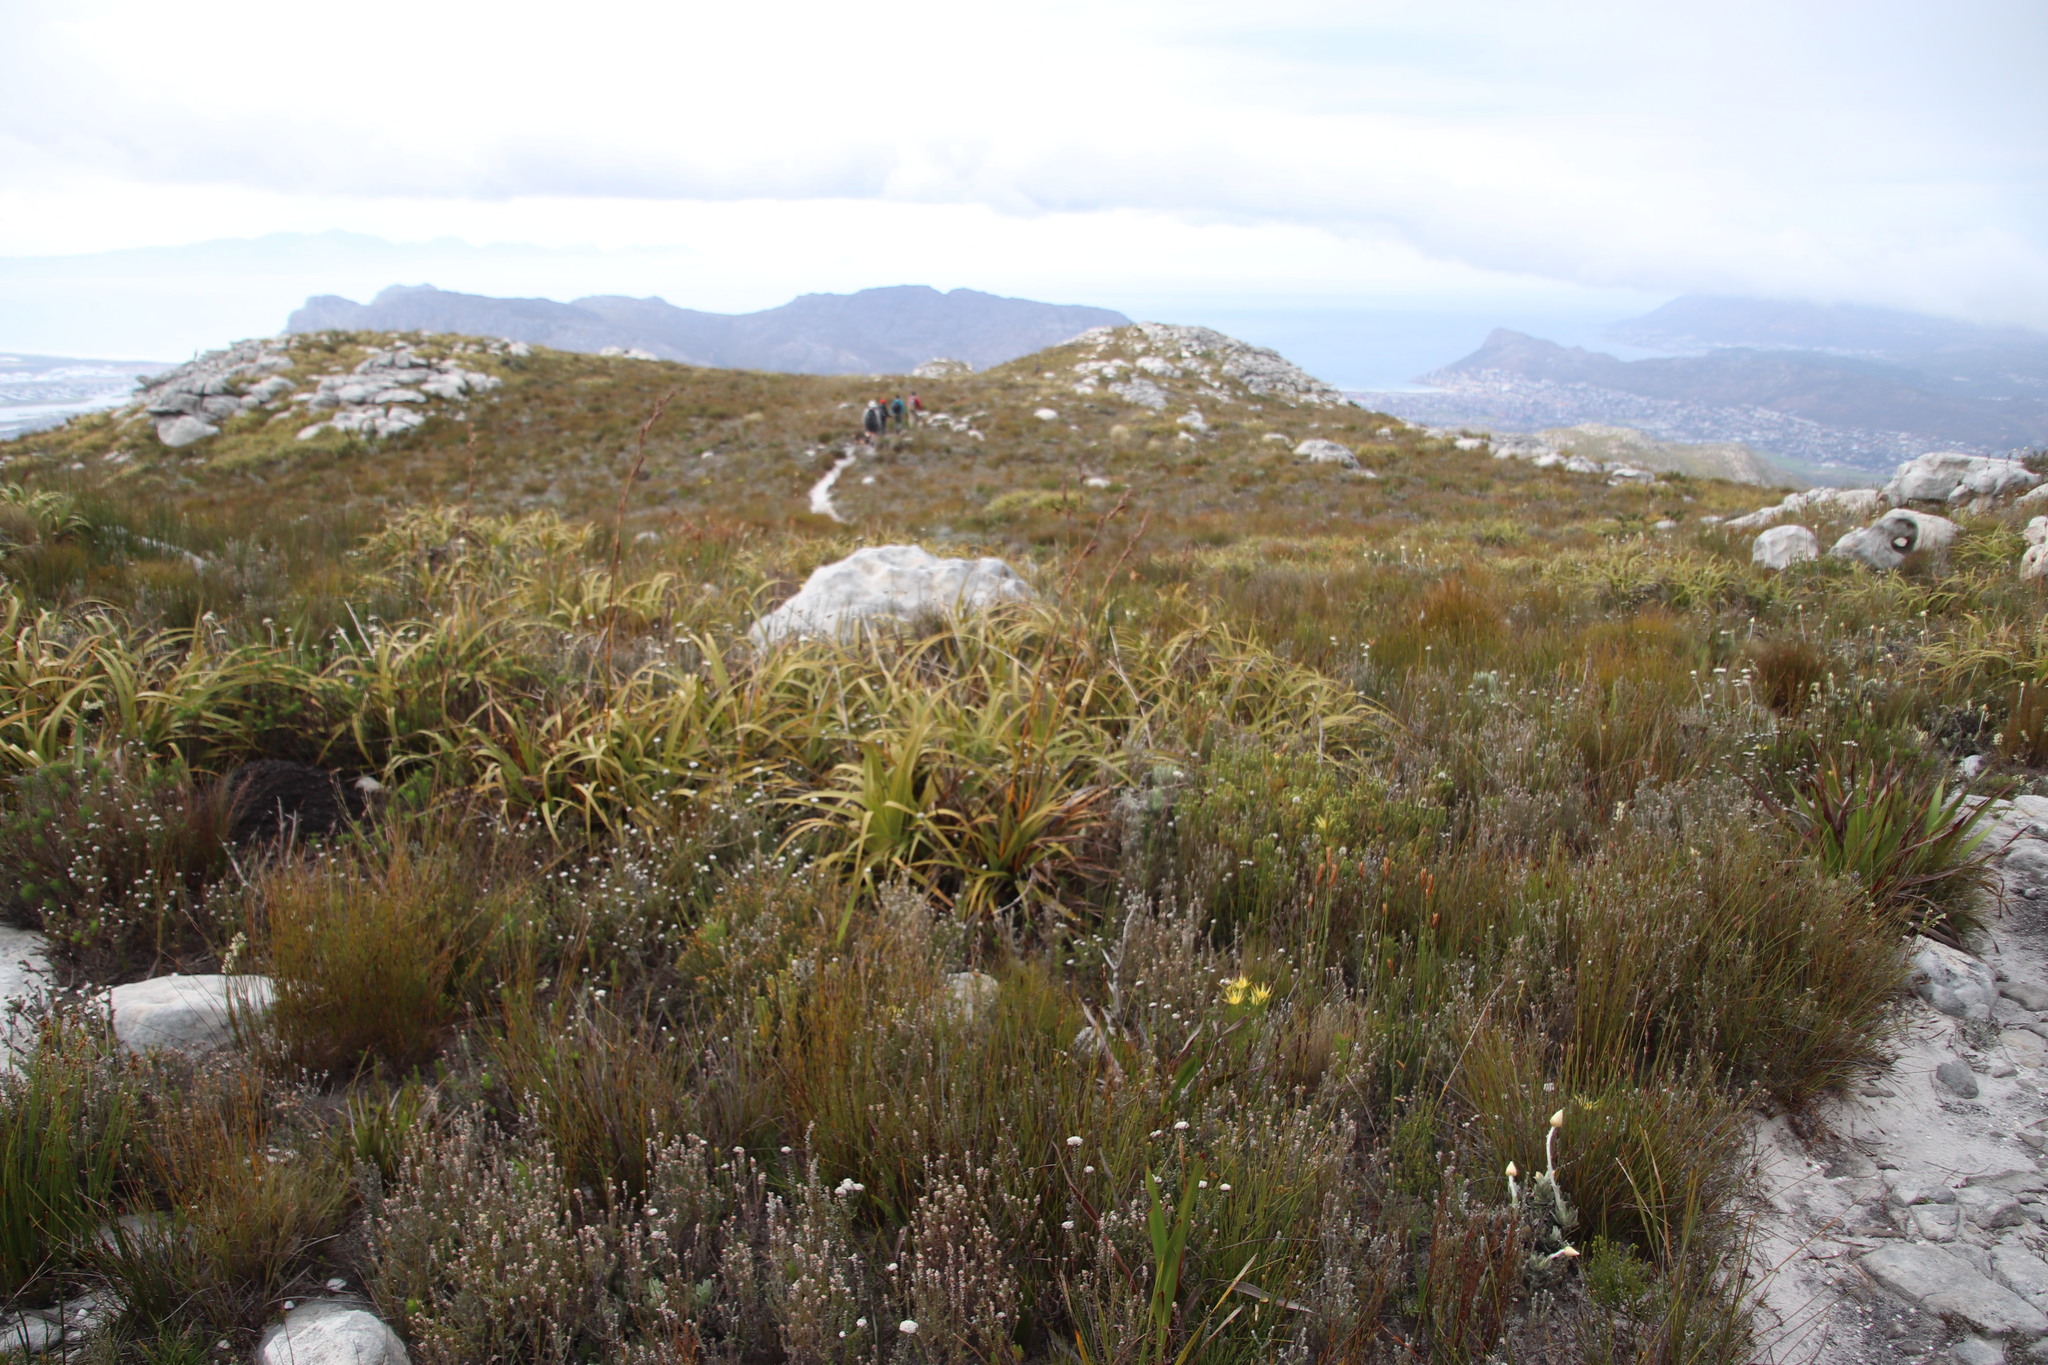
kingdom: Plantae
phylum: Tracheophyta
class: Liliopsida
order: Poales
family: Cyperaceae
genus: Tetraria
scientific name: Tetraria thermalis
